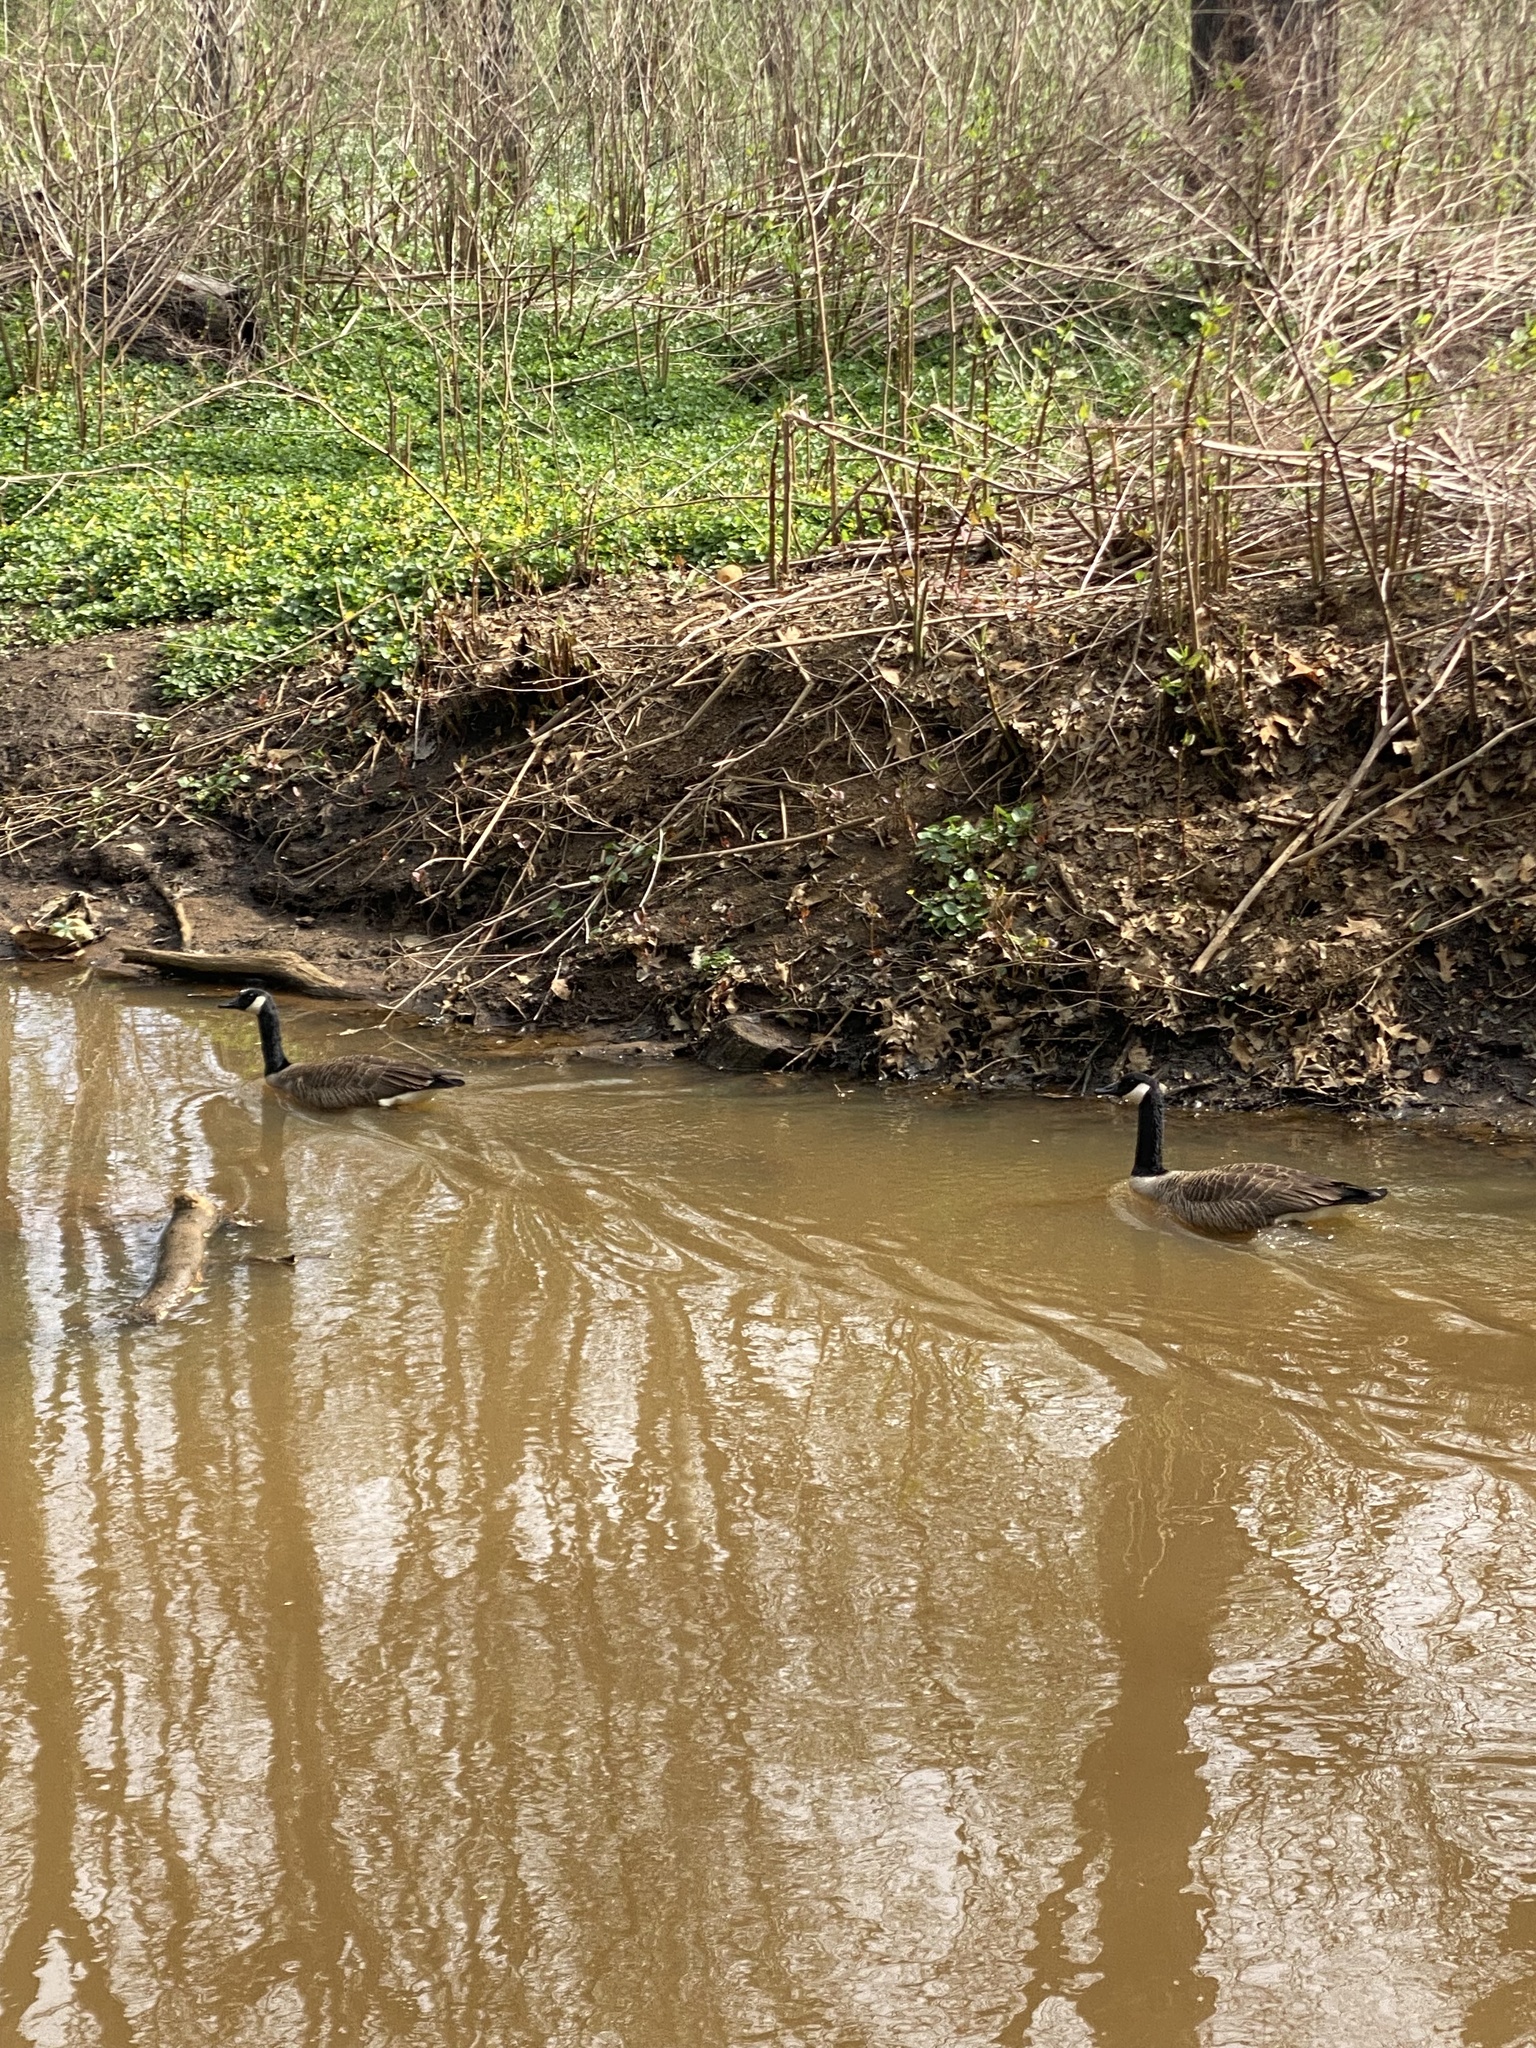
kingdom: Animalia
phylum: Chordata
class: Aves
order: Anseriformes
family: Anatidae
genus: Branta
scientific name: Branta canadensis
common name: Canada goose
